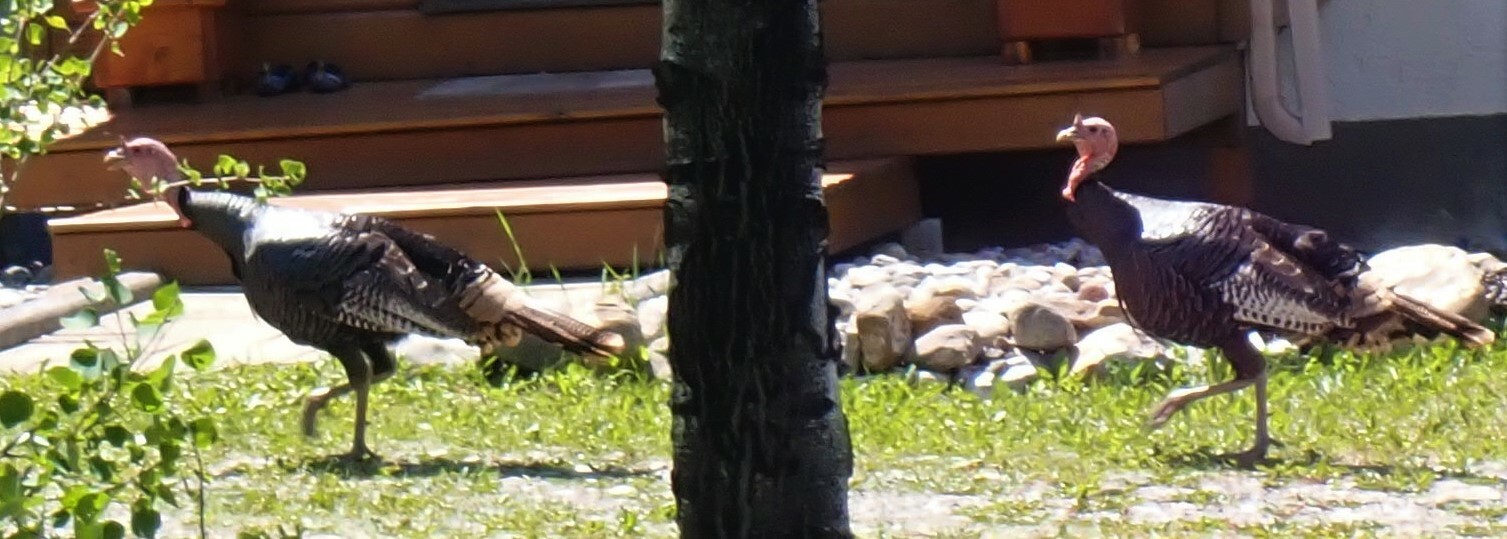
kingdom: Animalia
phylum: Chordata
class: Aves
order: Galliformes
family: Phasianidae
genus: Meleagris
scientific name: Meleagris gallopavo
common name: Wild turkey
